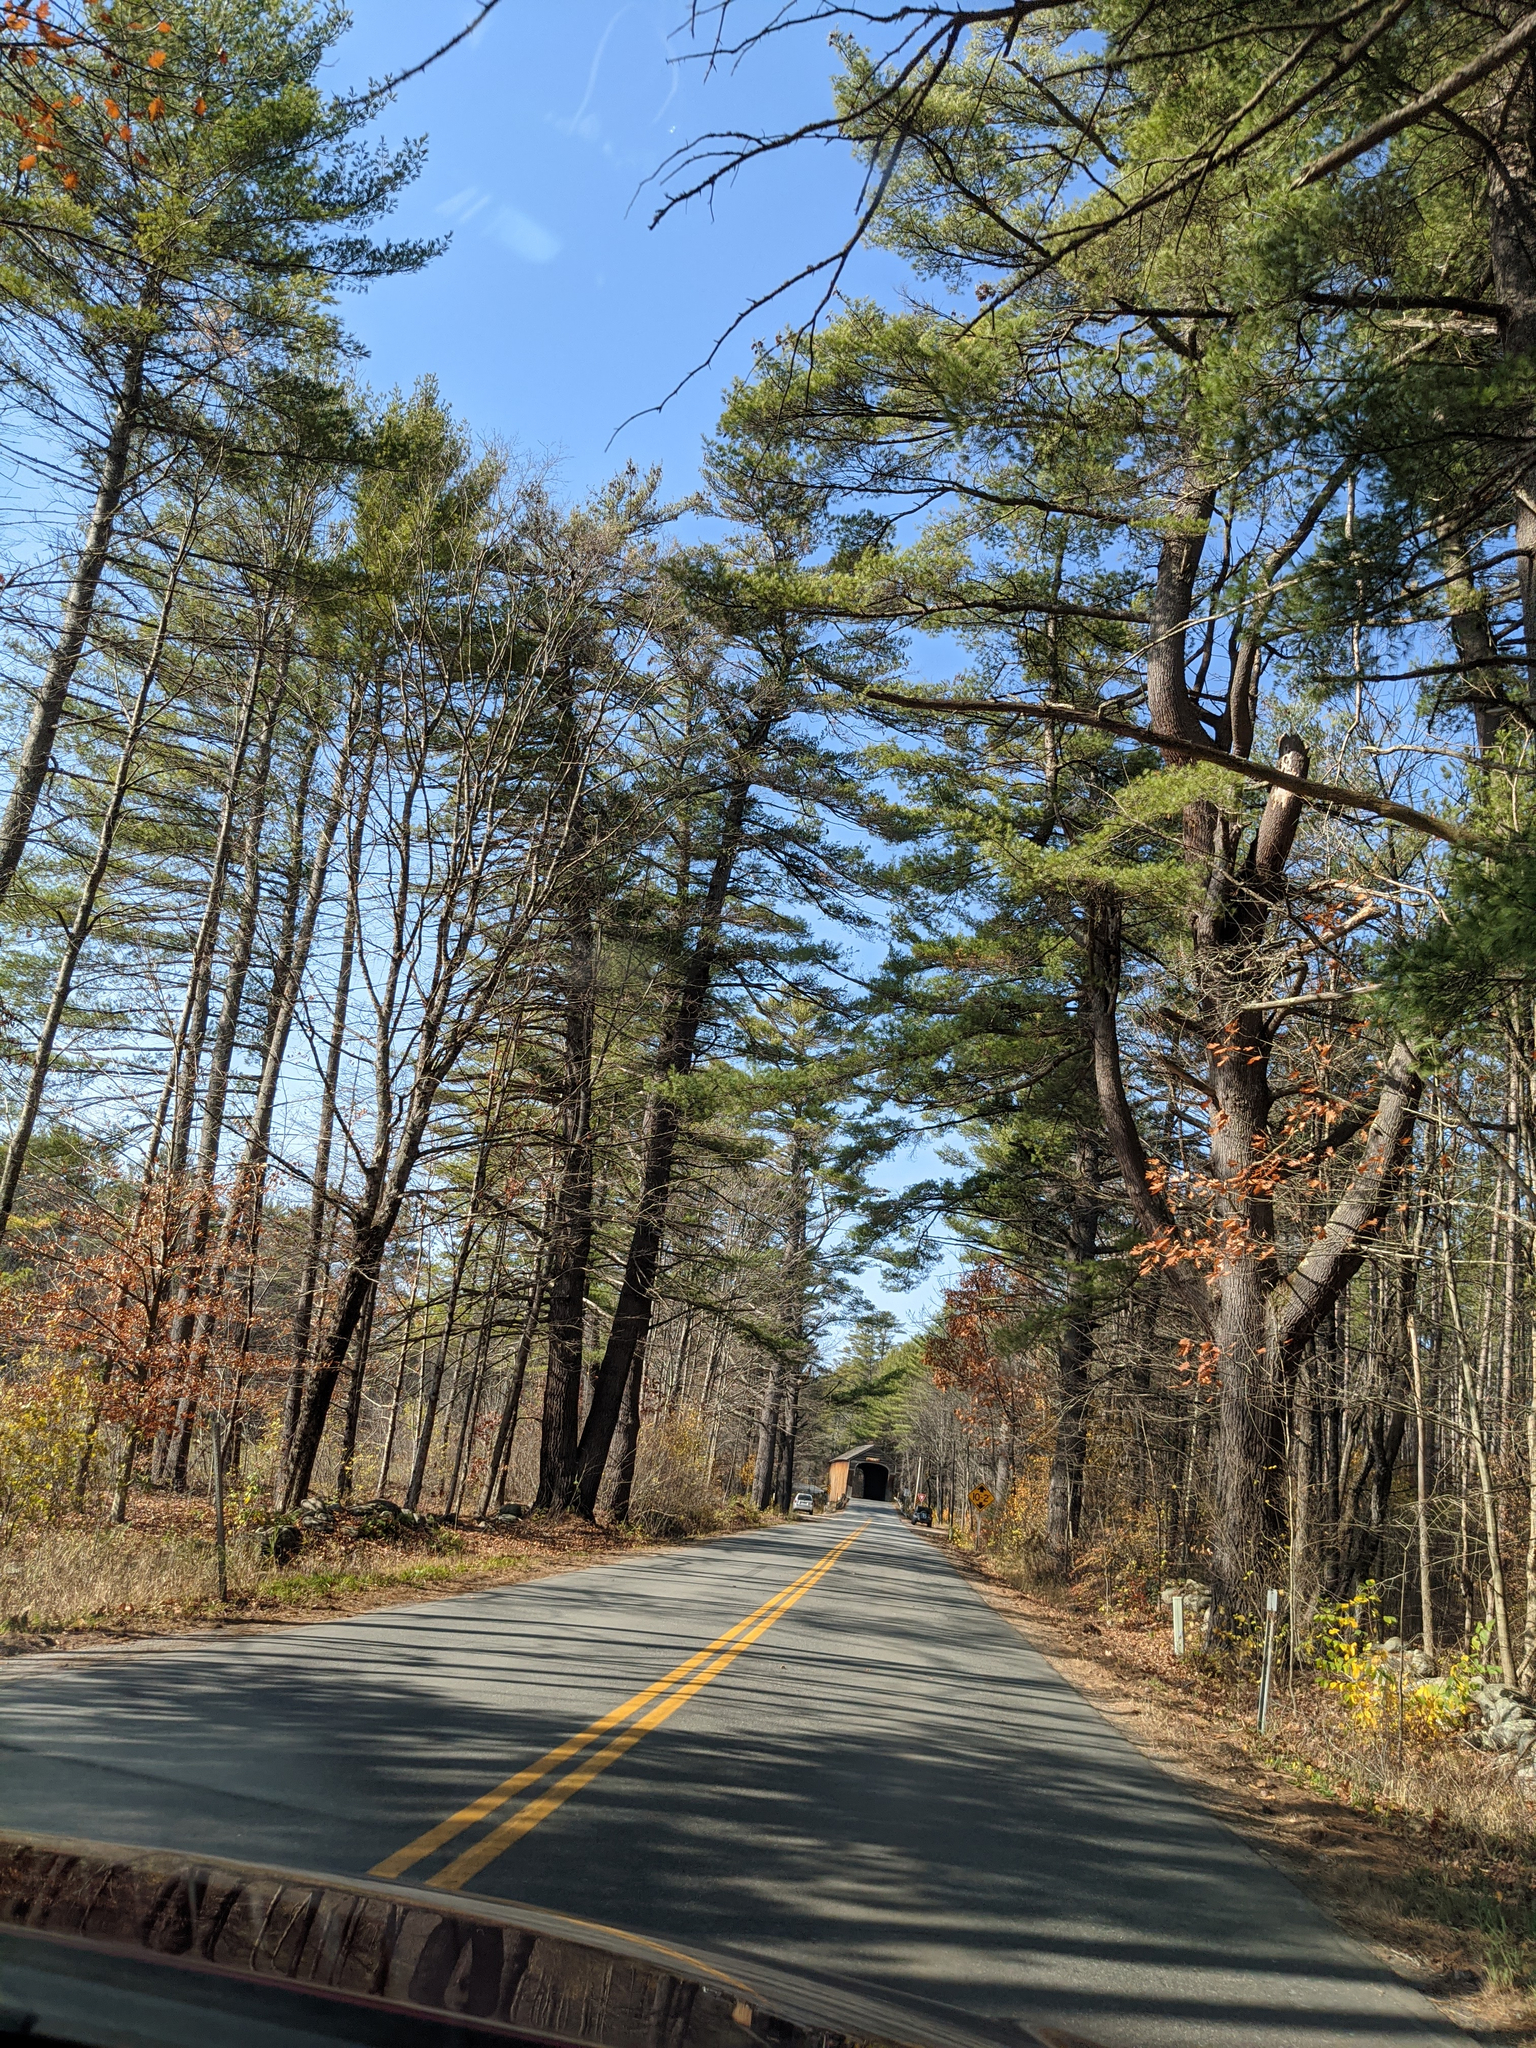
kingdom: Plantae
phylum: Tracheophyta
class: Pinopsida
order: Pinales
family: Pinaceae
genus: Pinus
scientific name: Pinus strobus
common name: Weymouth pine
